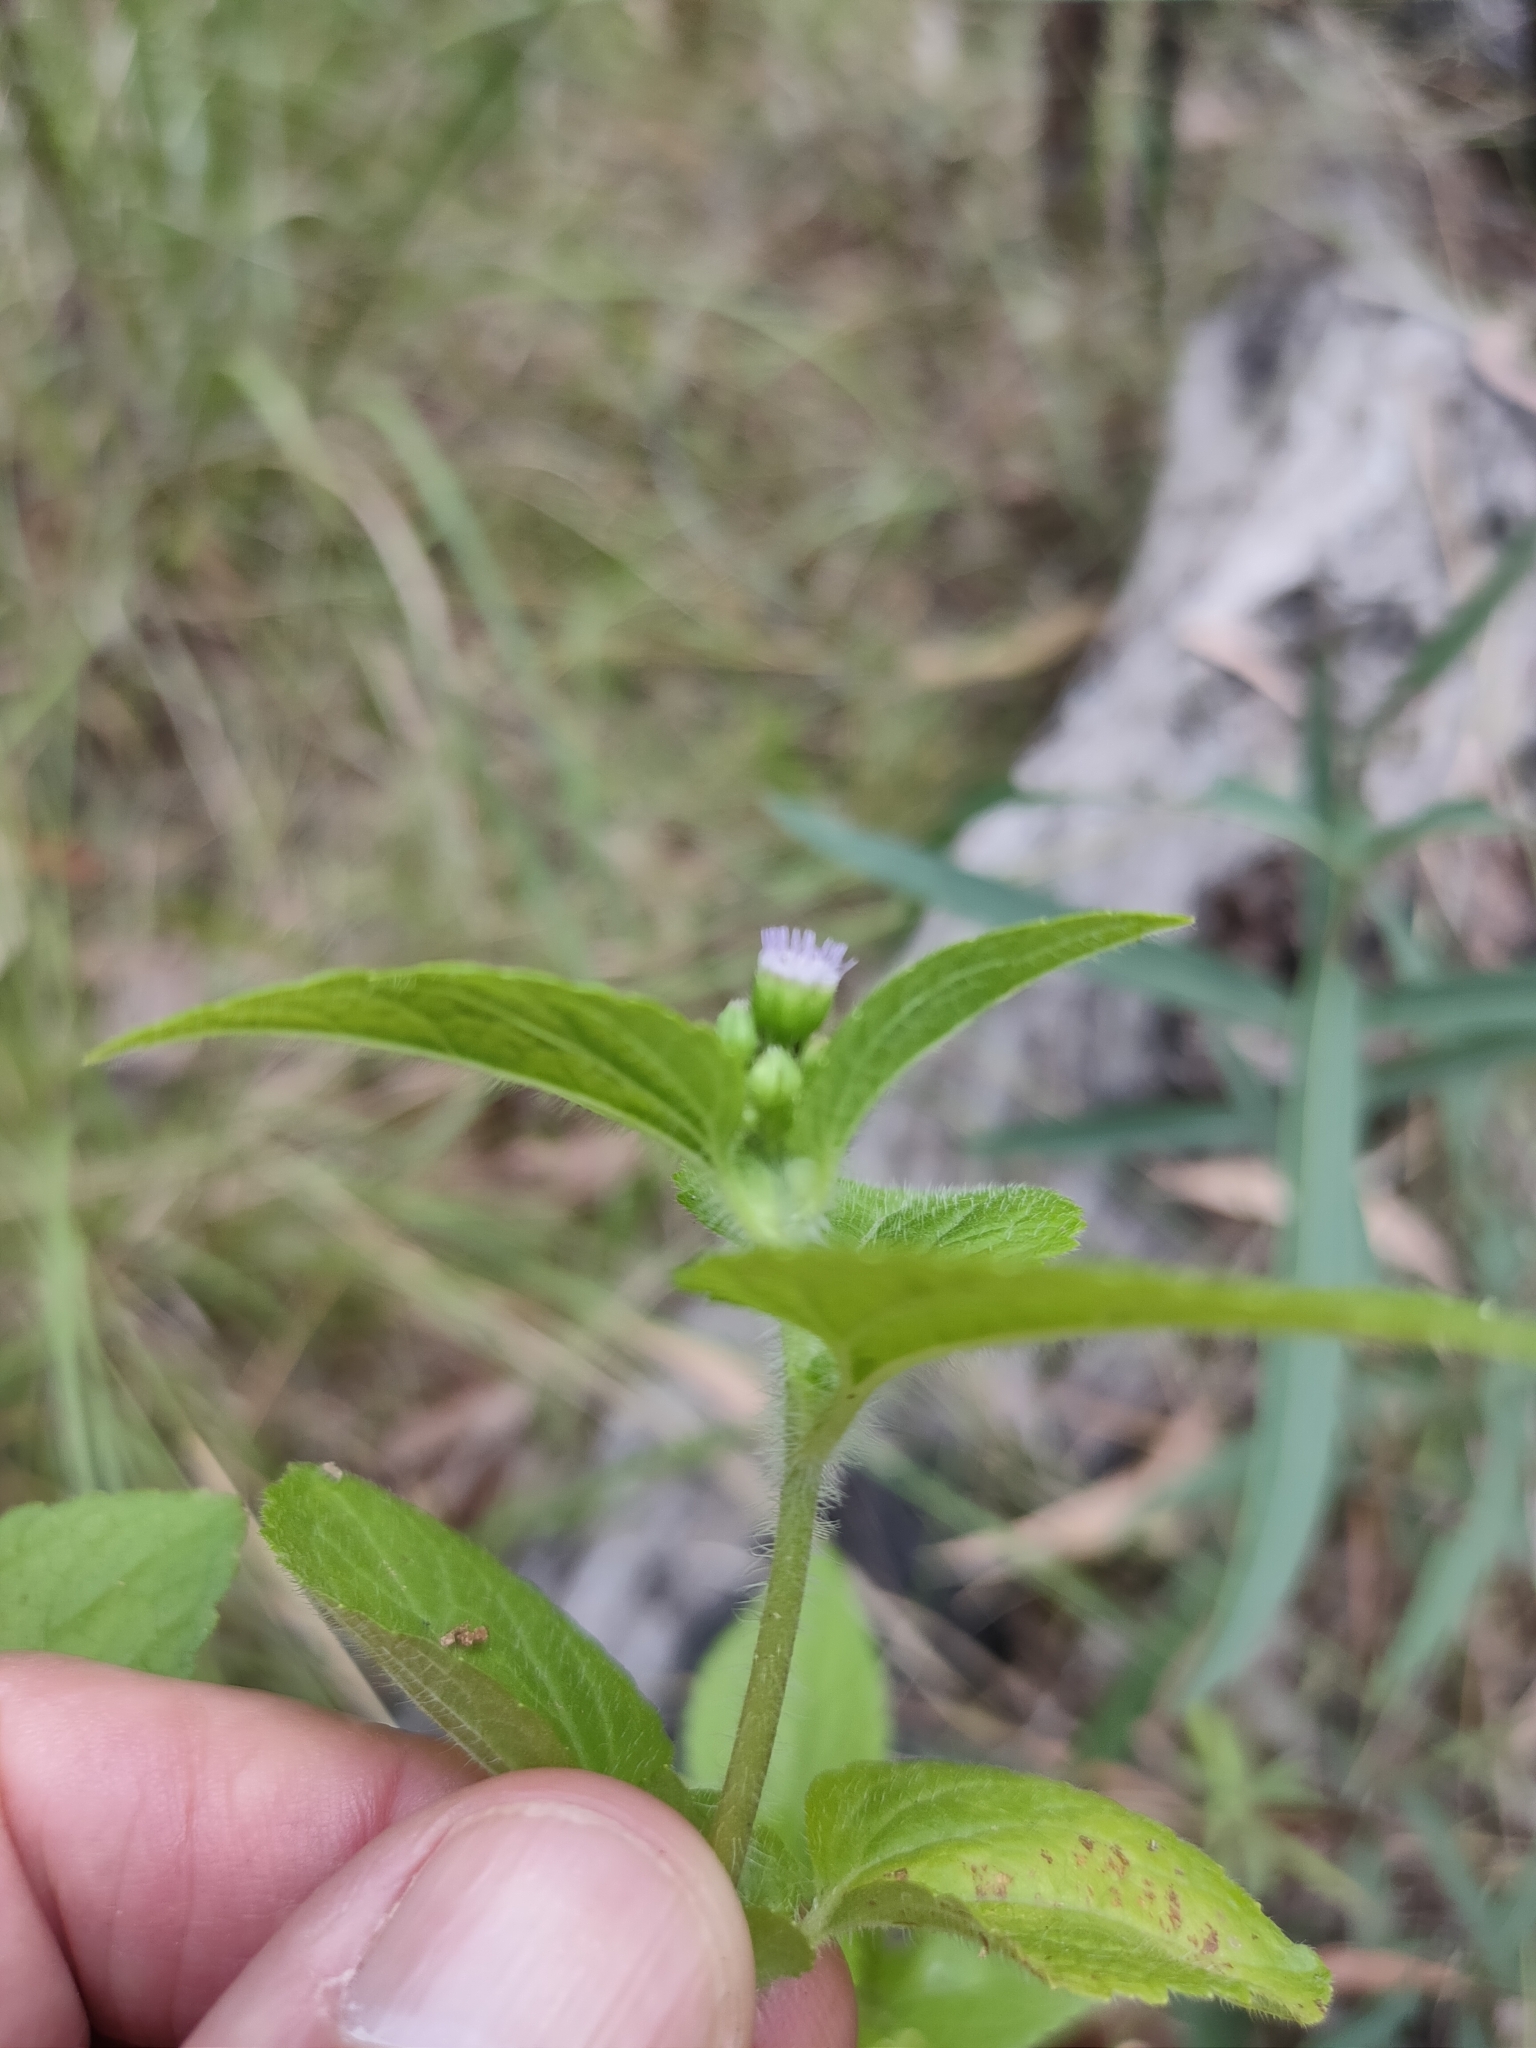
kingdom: Plantae
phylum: Tracheophyta
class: Magnoliopsida
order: Asterales
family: Asteraceae
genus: Ageratum
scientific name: Ageratum conyzoides
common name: Tropical whiteweed
